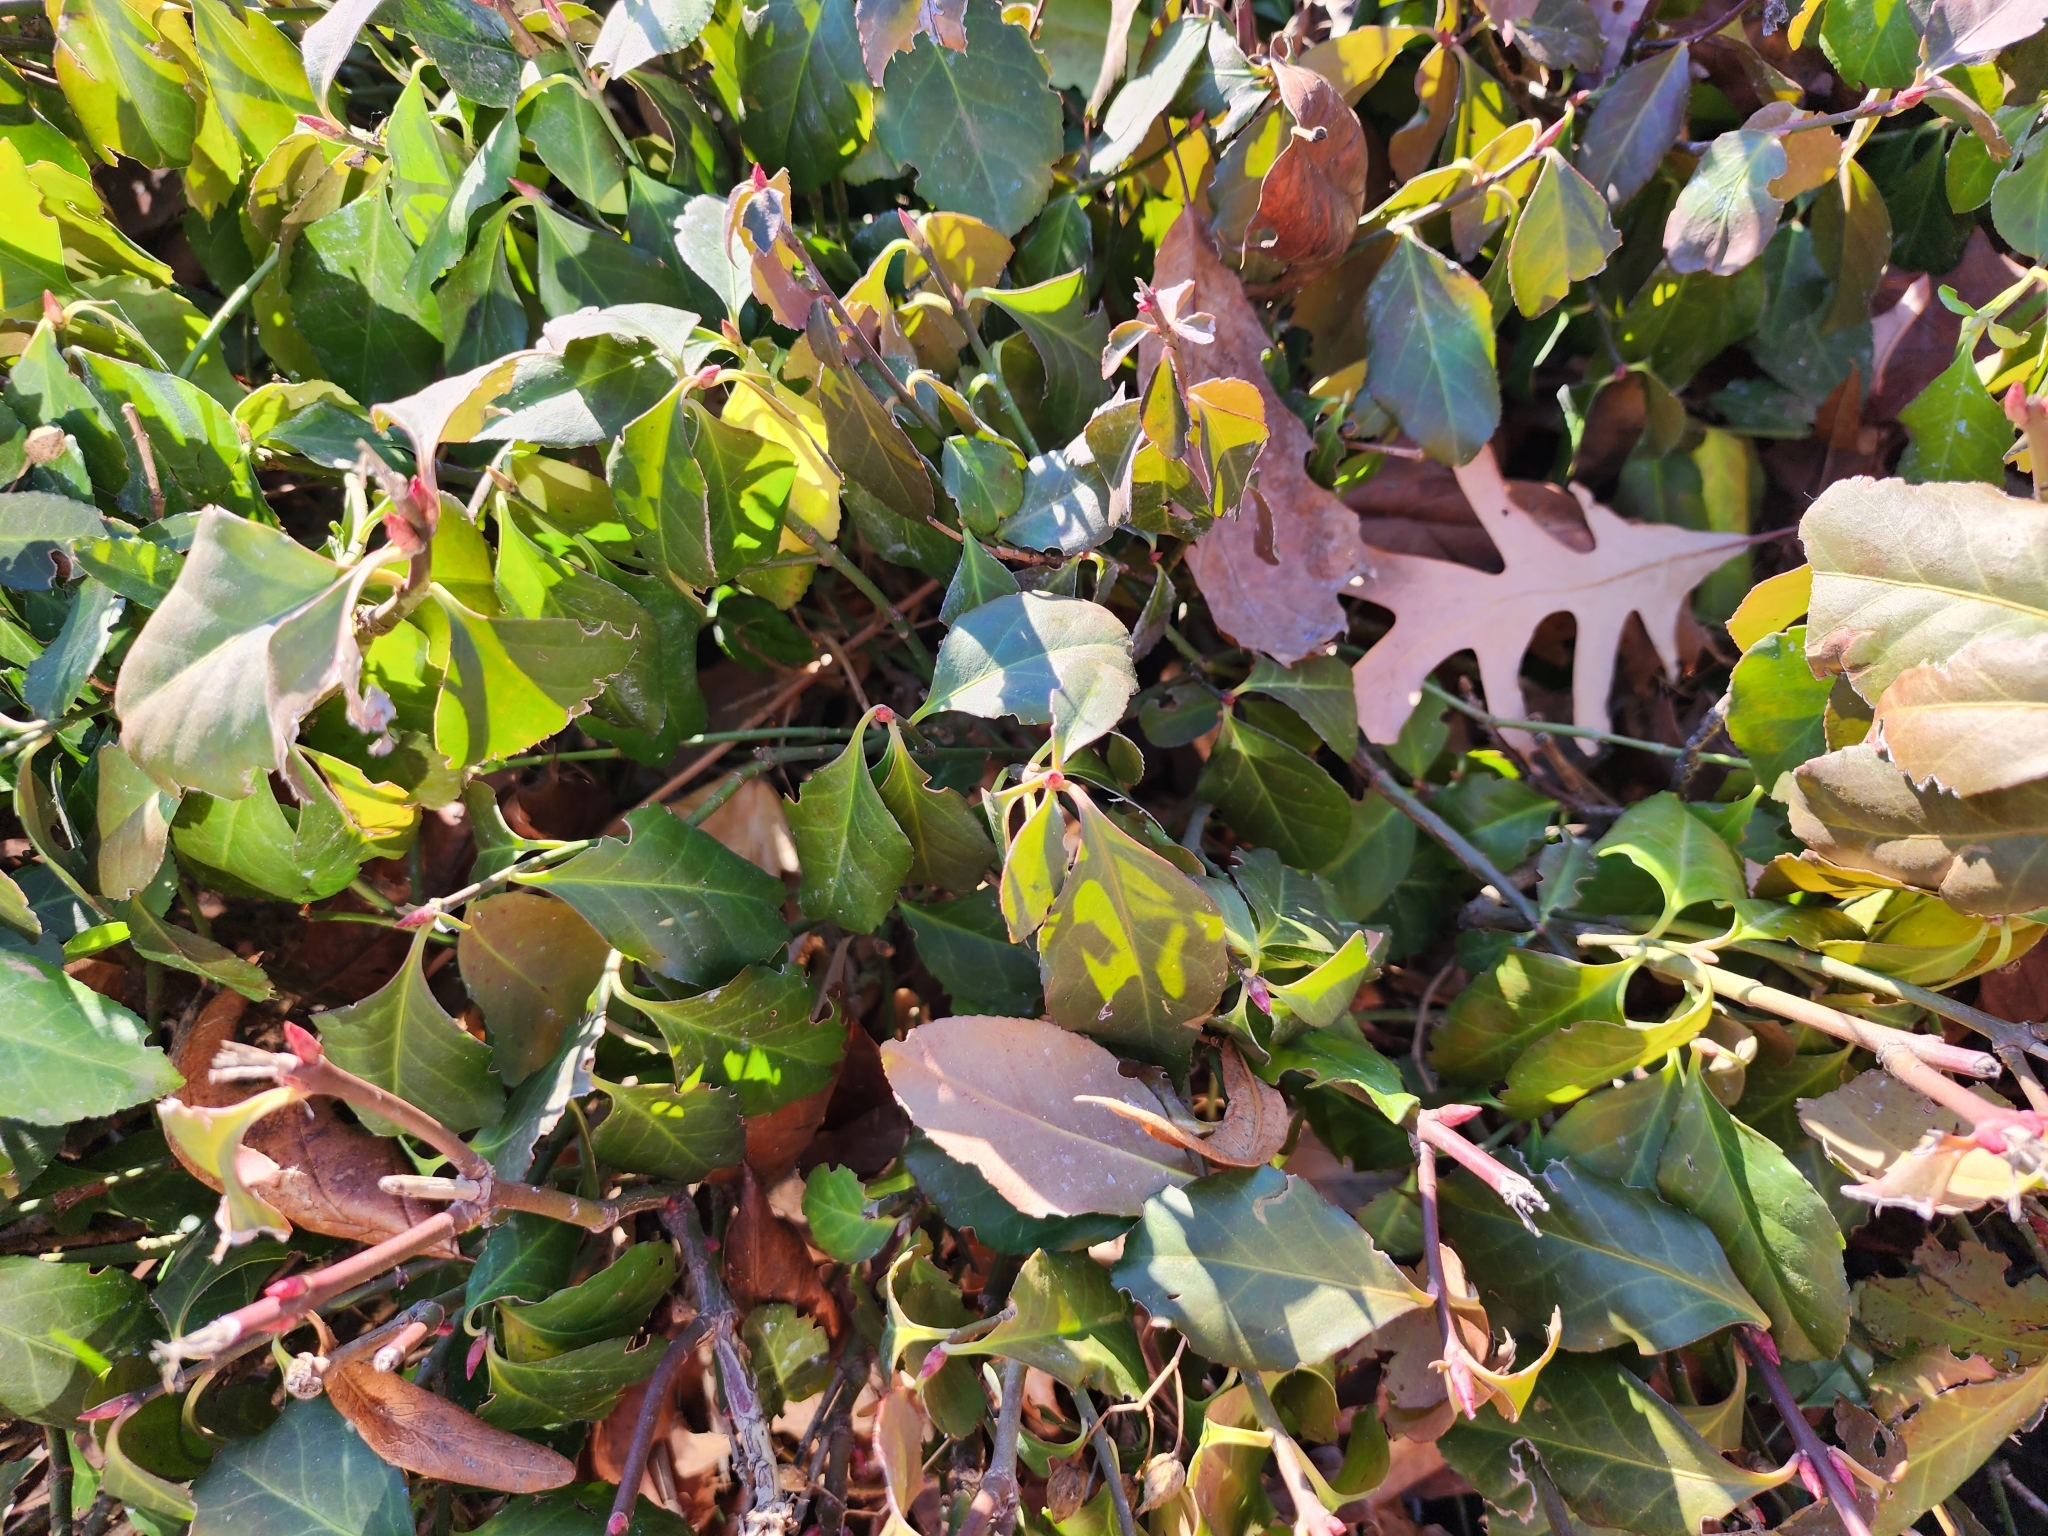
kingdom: Plantae
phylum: Tracheophyta
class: Magnoliopsida
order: Celastrales
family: Celastraceae
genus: Euonymus
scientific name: Euonymus fortunei
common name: Climbing euonymus
